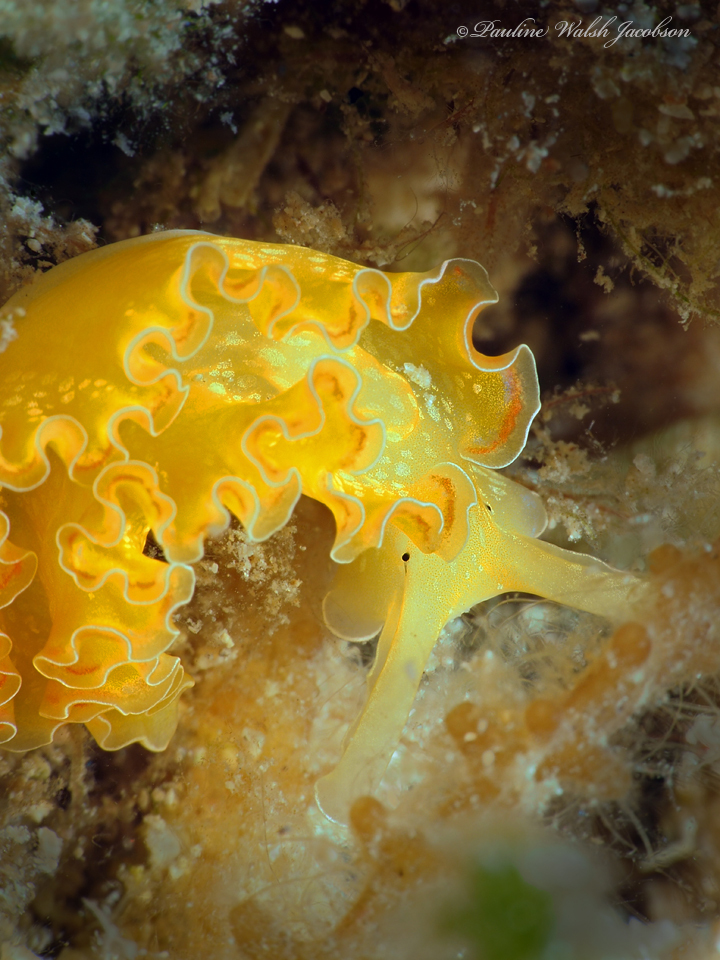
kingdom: Animalia
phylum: Mollusca
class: Gastropoda
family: Plakobranchidae
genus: Elysia
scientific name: Elysia crispata
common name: Lettuce slug
